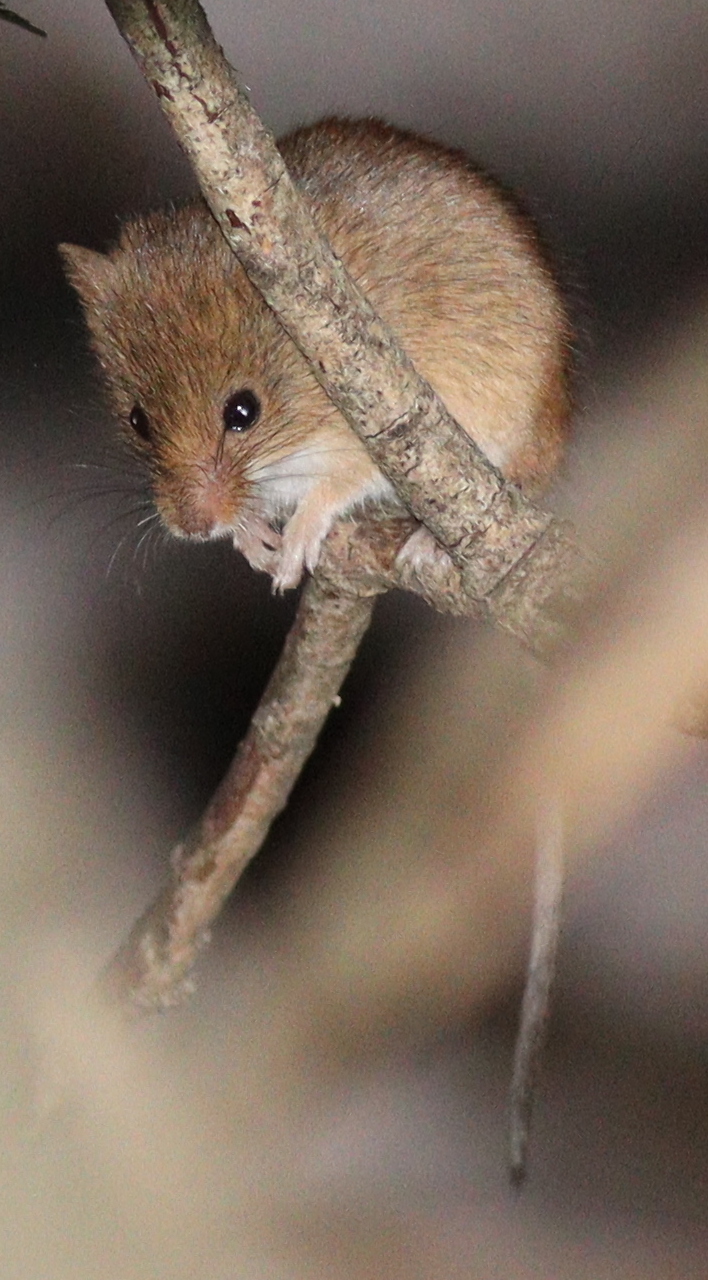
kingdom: Animalia
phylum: Chordata
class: Mammalia
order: Rodentia
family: Muridae
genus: Micromys
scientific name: Micromys minutus
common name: Harvest mouse
